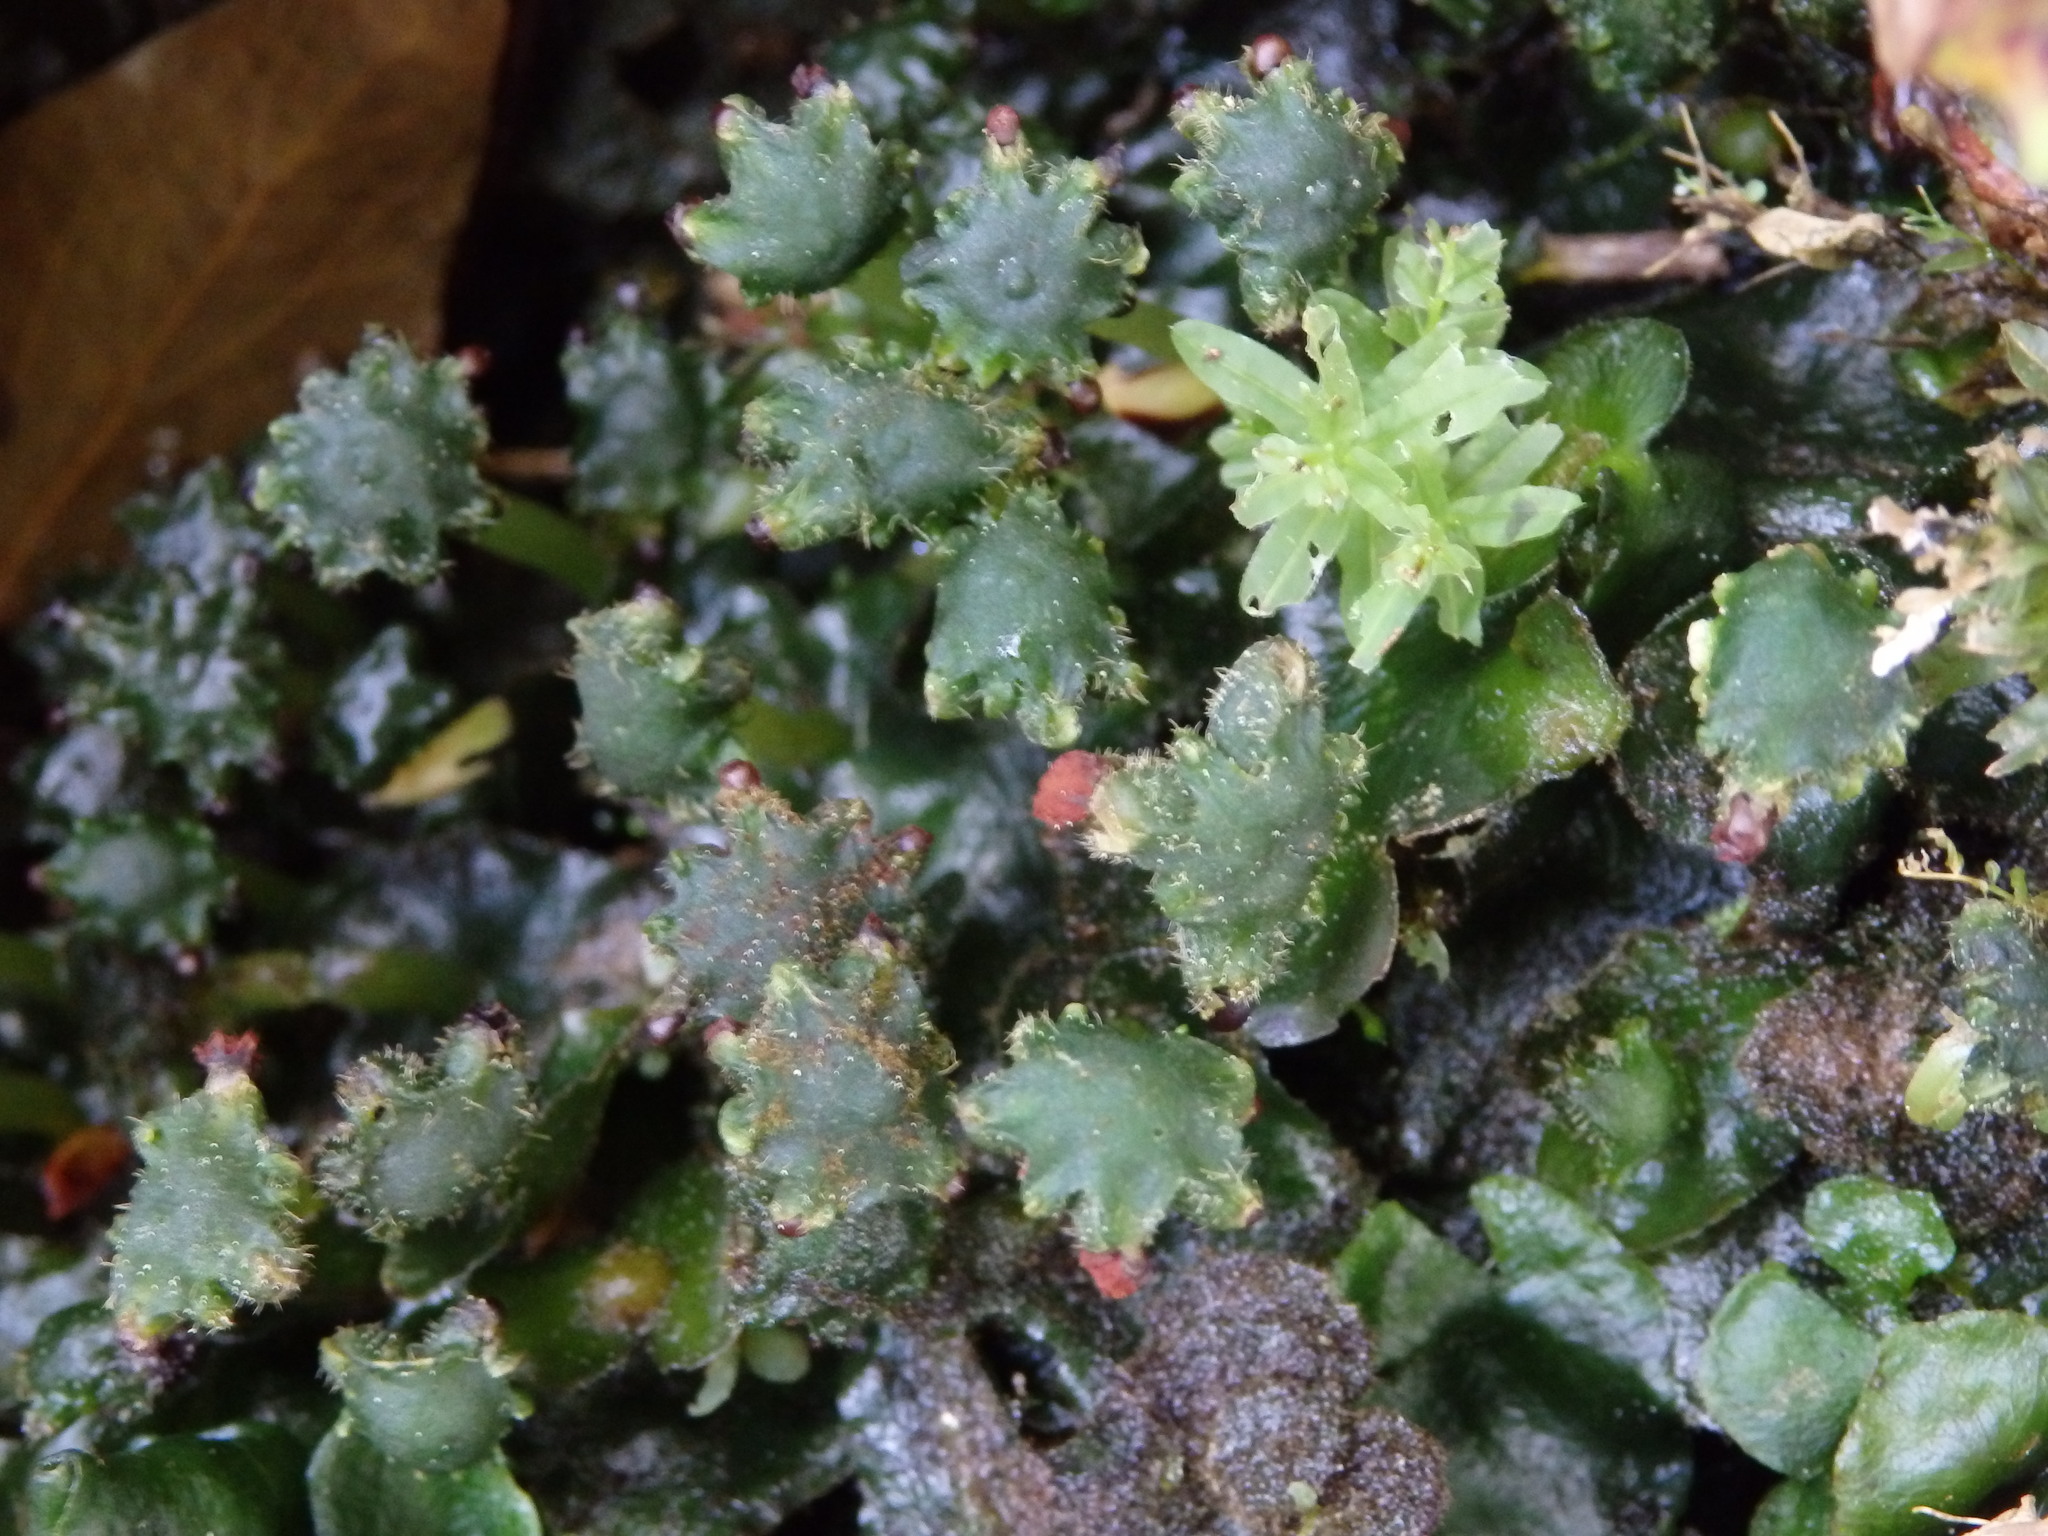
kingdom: Plantae
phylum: Marchantiophyta
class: Marchantiopsida
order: Marchantiales
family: Dumortieraceae
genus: Dumortiera
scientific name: Dumortiera hirsuta
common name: Dumortier's liverwort
